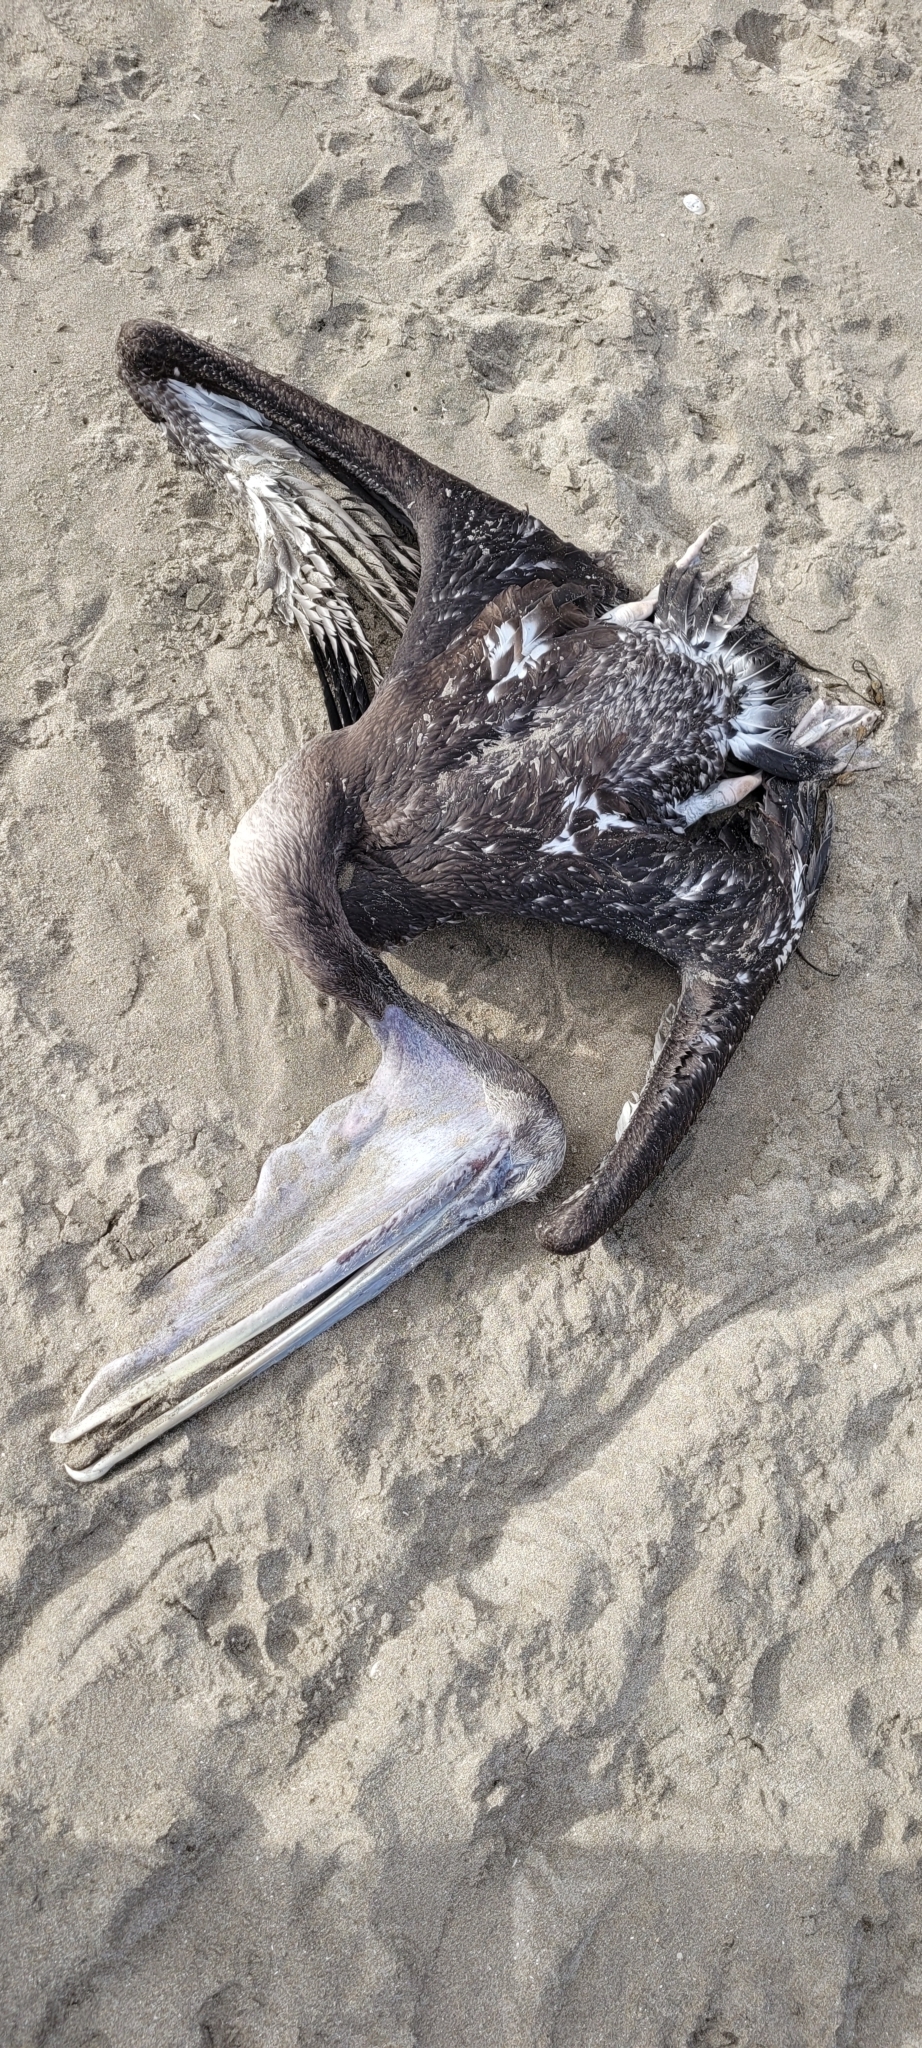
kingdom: Animalia
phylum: Chordata
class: Aves
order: Pelecaniformes
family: Pelecanidae
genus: Pelecanus
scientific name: Pelecanus thagus
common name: Peruvian pelican
